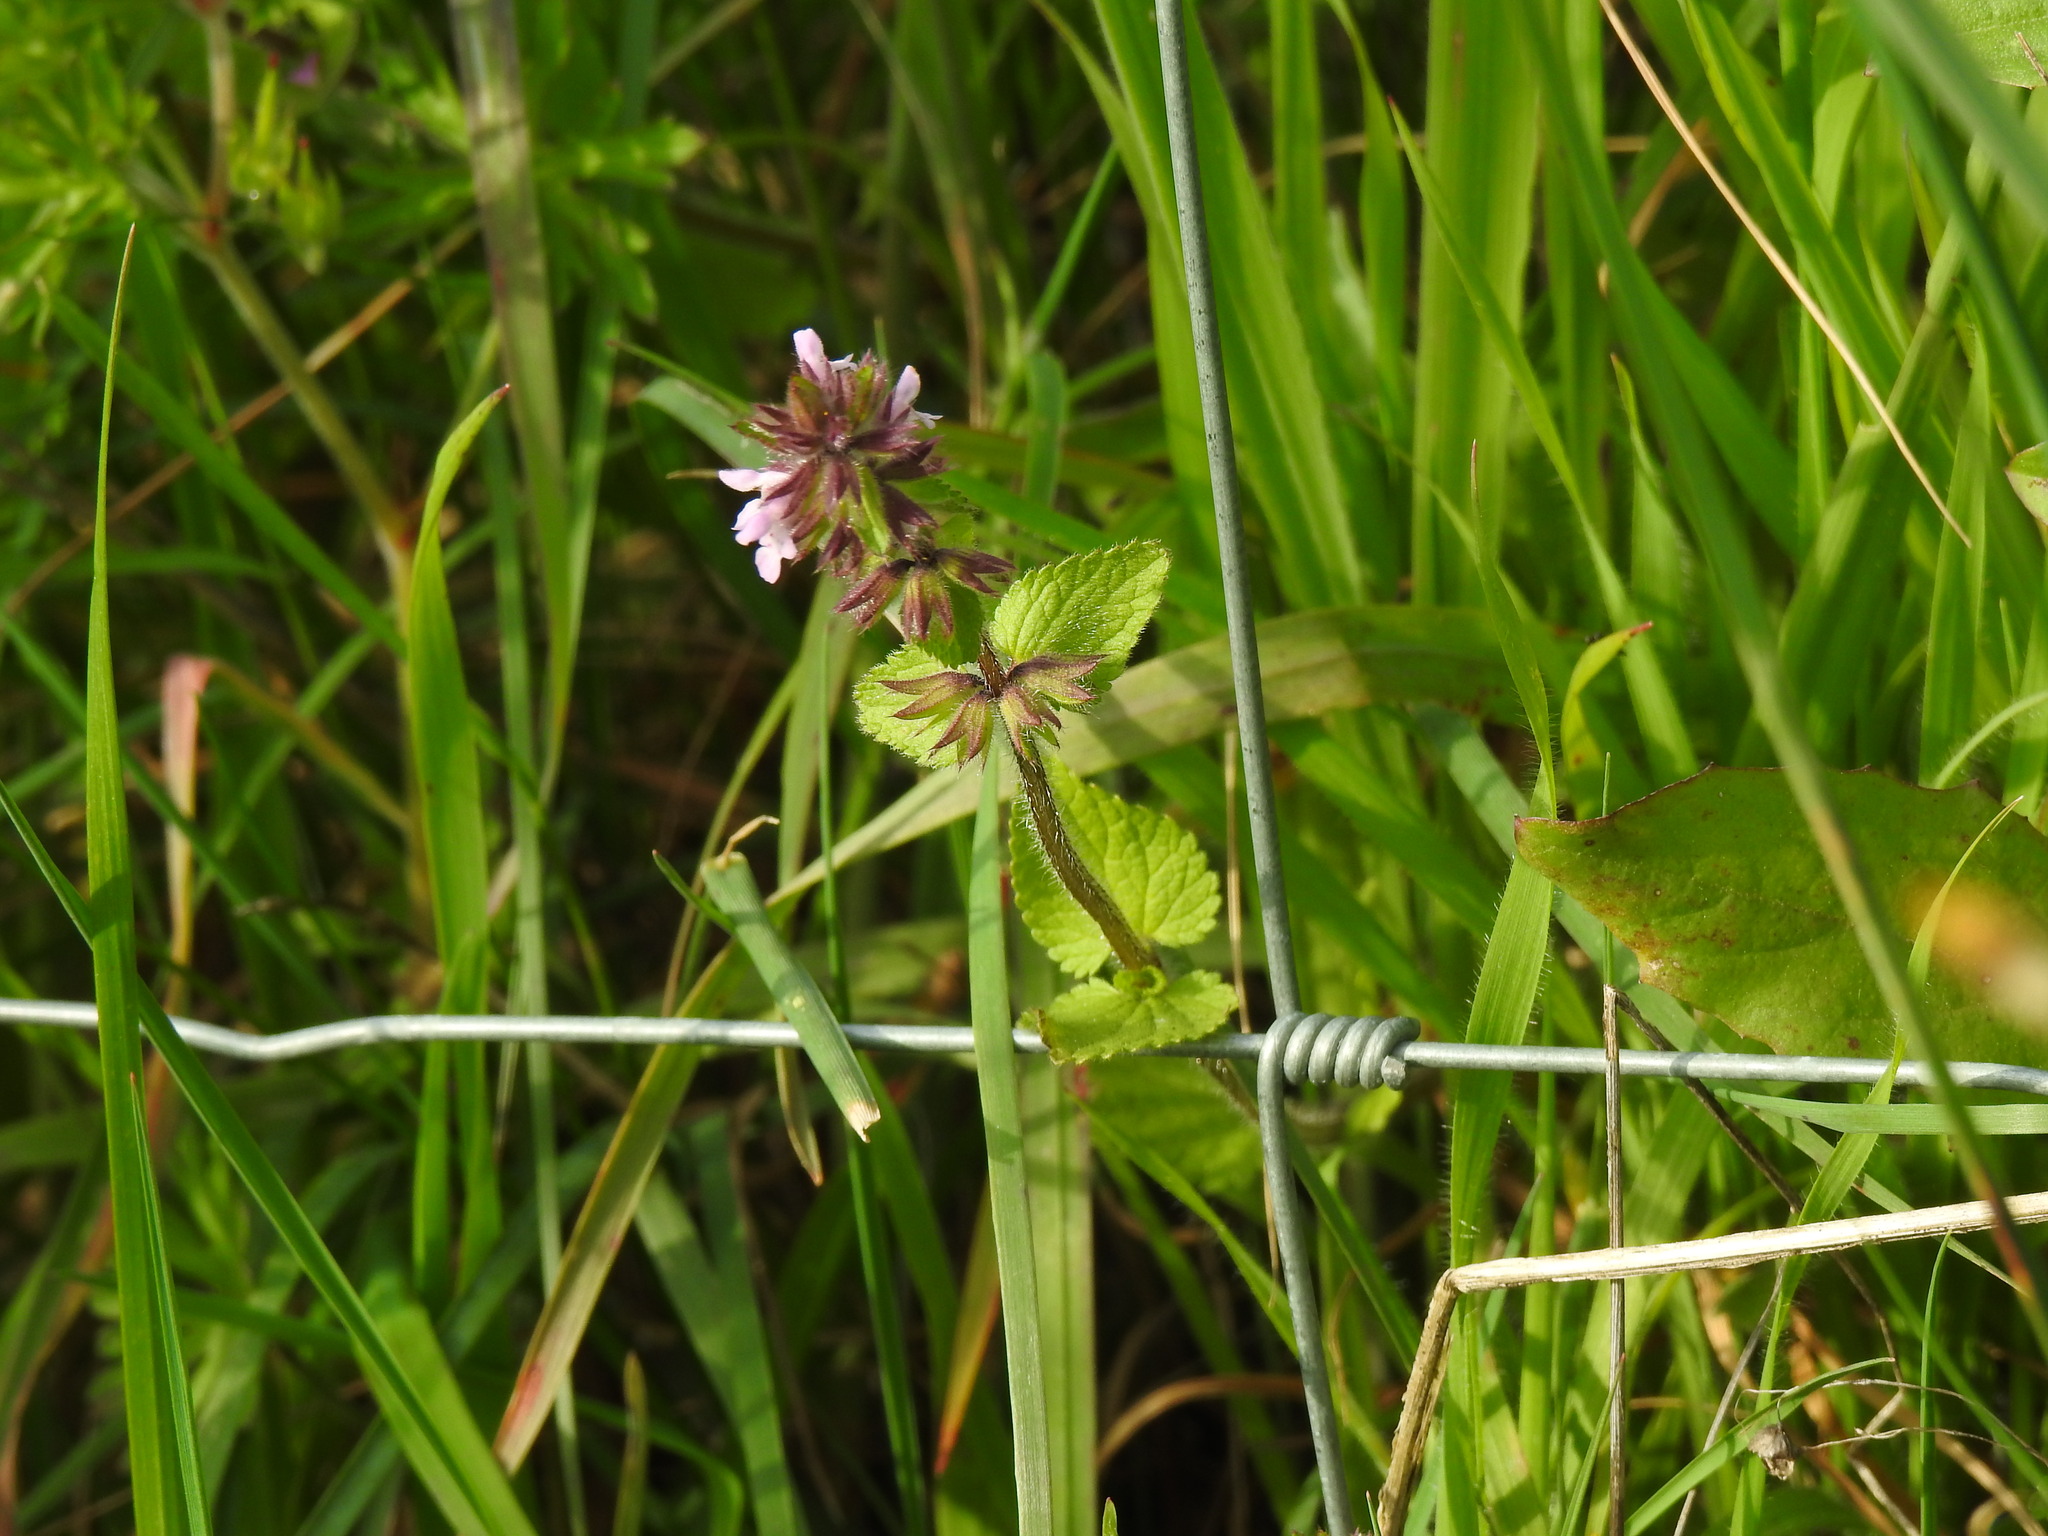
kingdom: Plantae
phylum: Tracheophyta
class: Magnoliopsida
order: Lamiales
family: Lamiaceae
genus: Stachys
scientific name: Stachys arvensis
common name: Field woundwort
